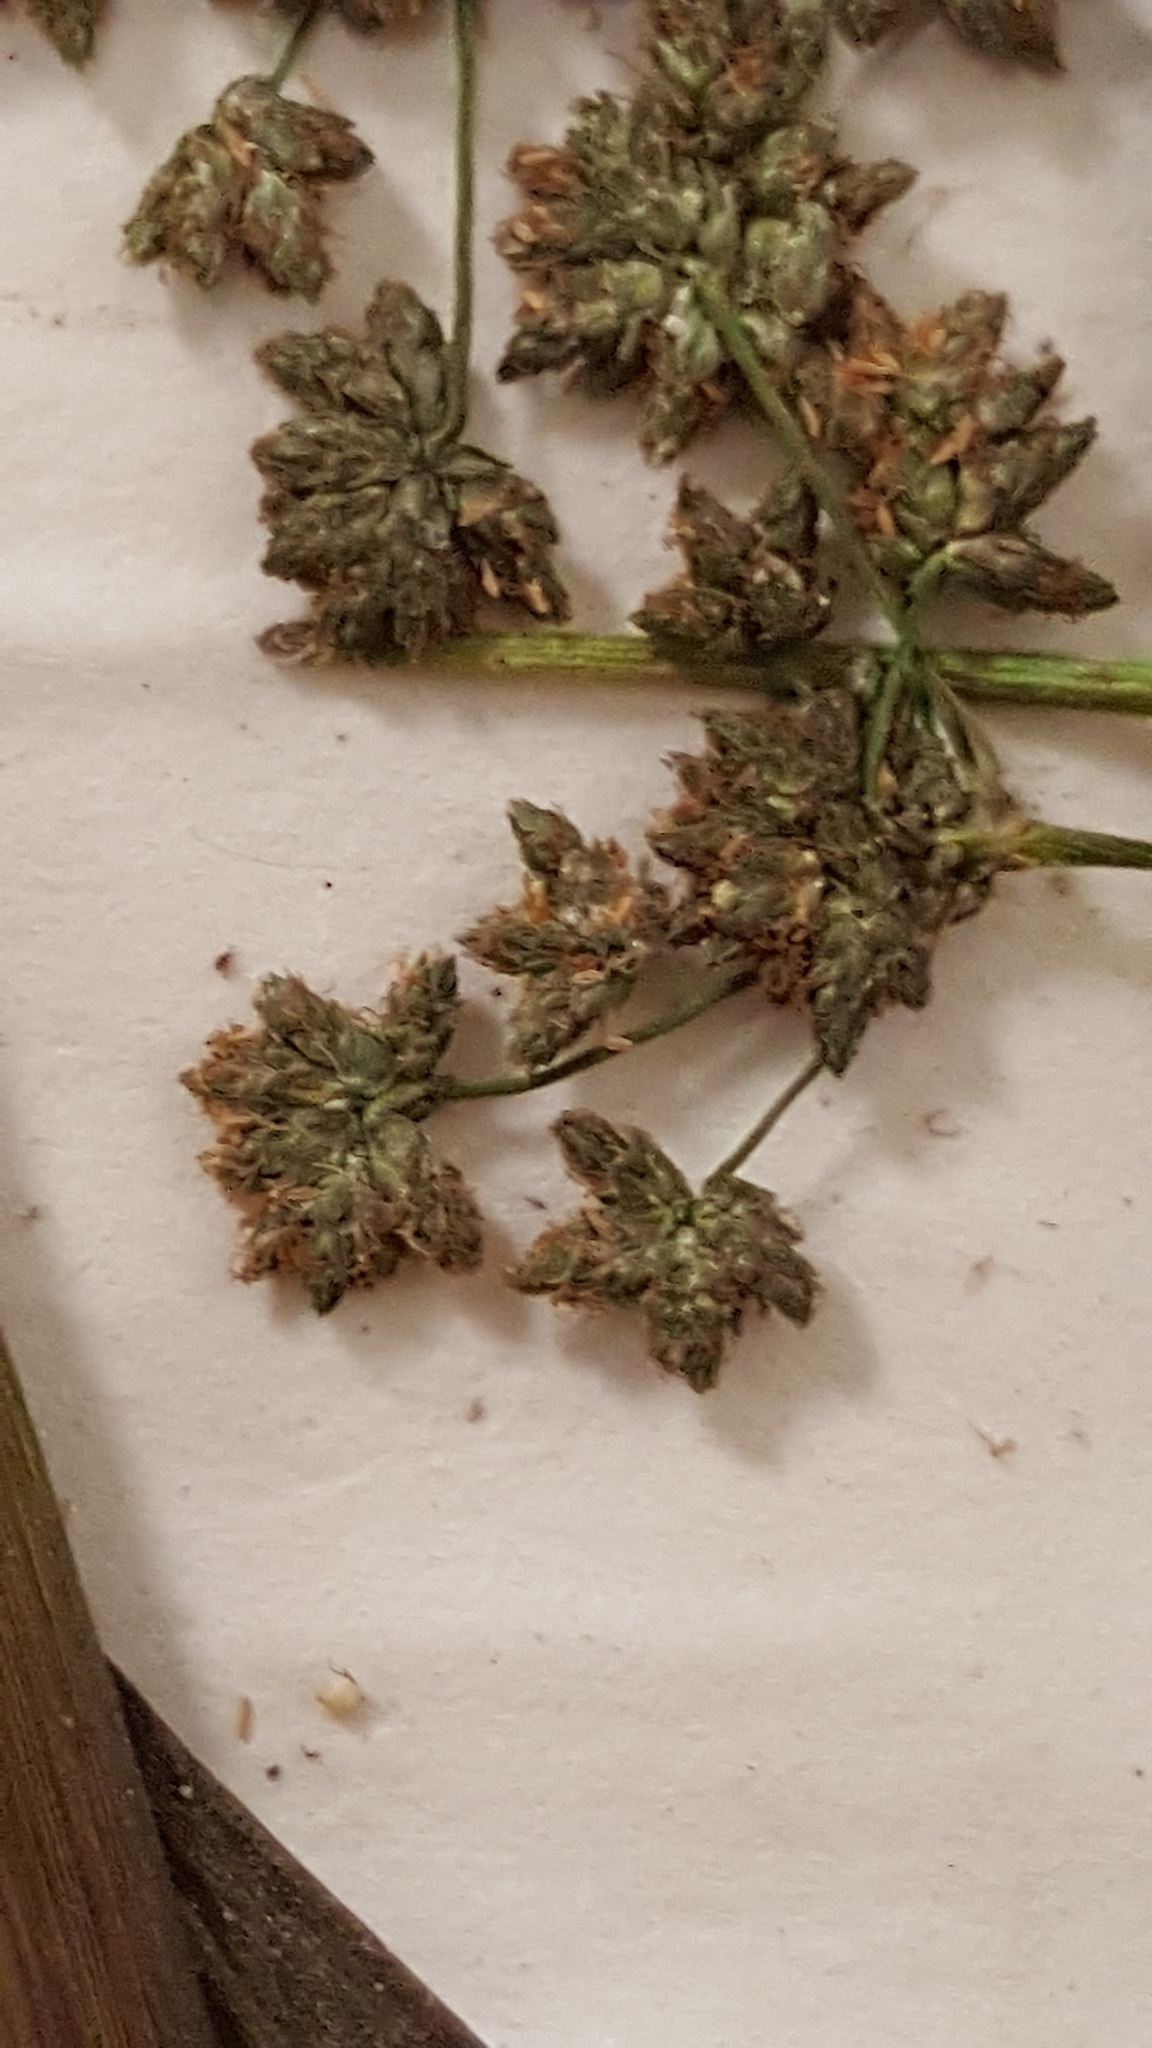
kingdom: Plantae
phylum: Tracheophyta
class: Liliopsida
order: Poales
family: Cyperaceae
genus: Scirpus
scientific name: Scirpus microcarpus
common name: Panicled bulrush
